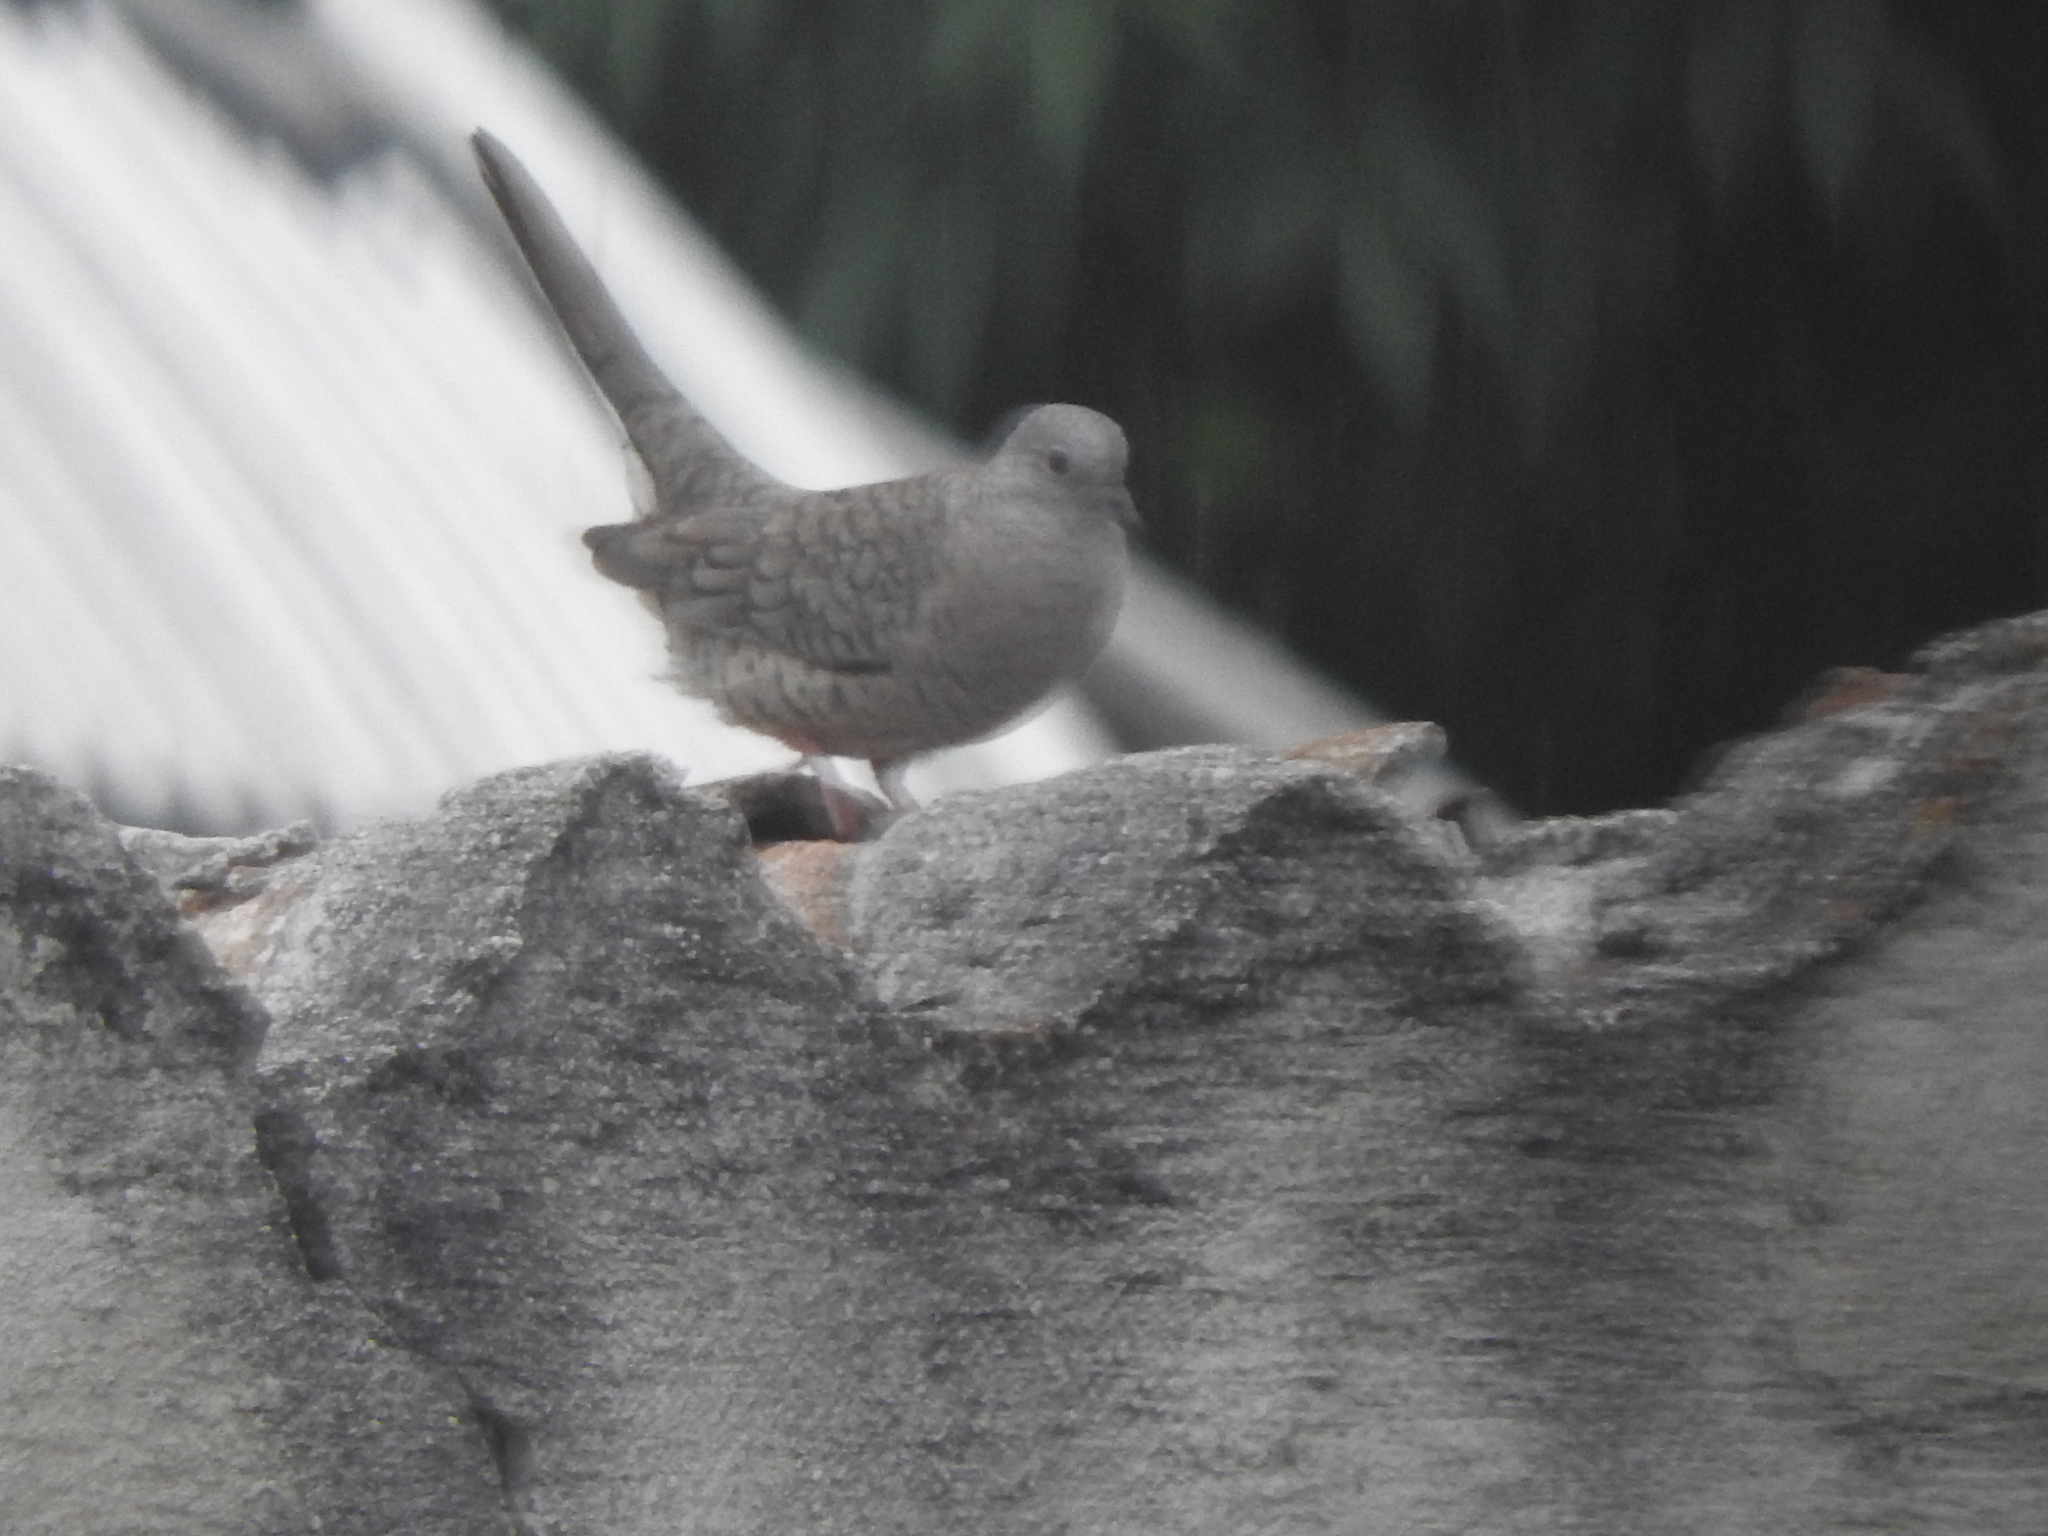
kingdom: Animalia
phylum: Chordata
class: Aves
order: Columbiformes
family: Columbidae
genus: Columbina
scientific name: Columbina inca
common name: Inca dove
